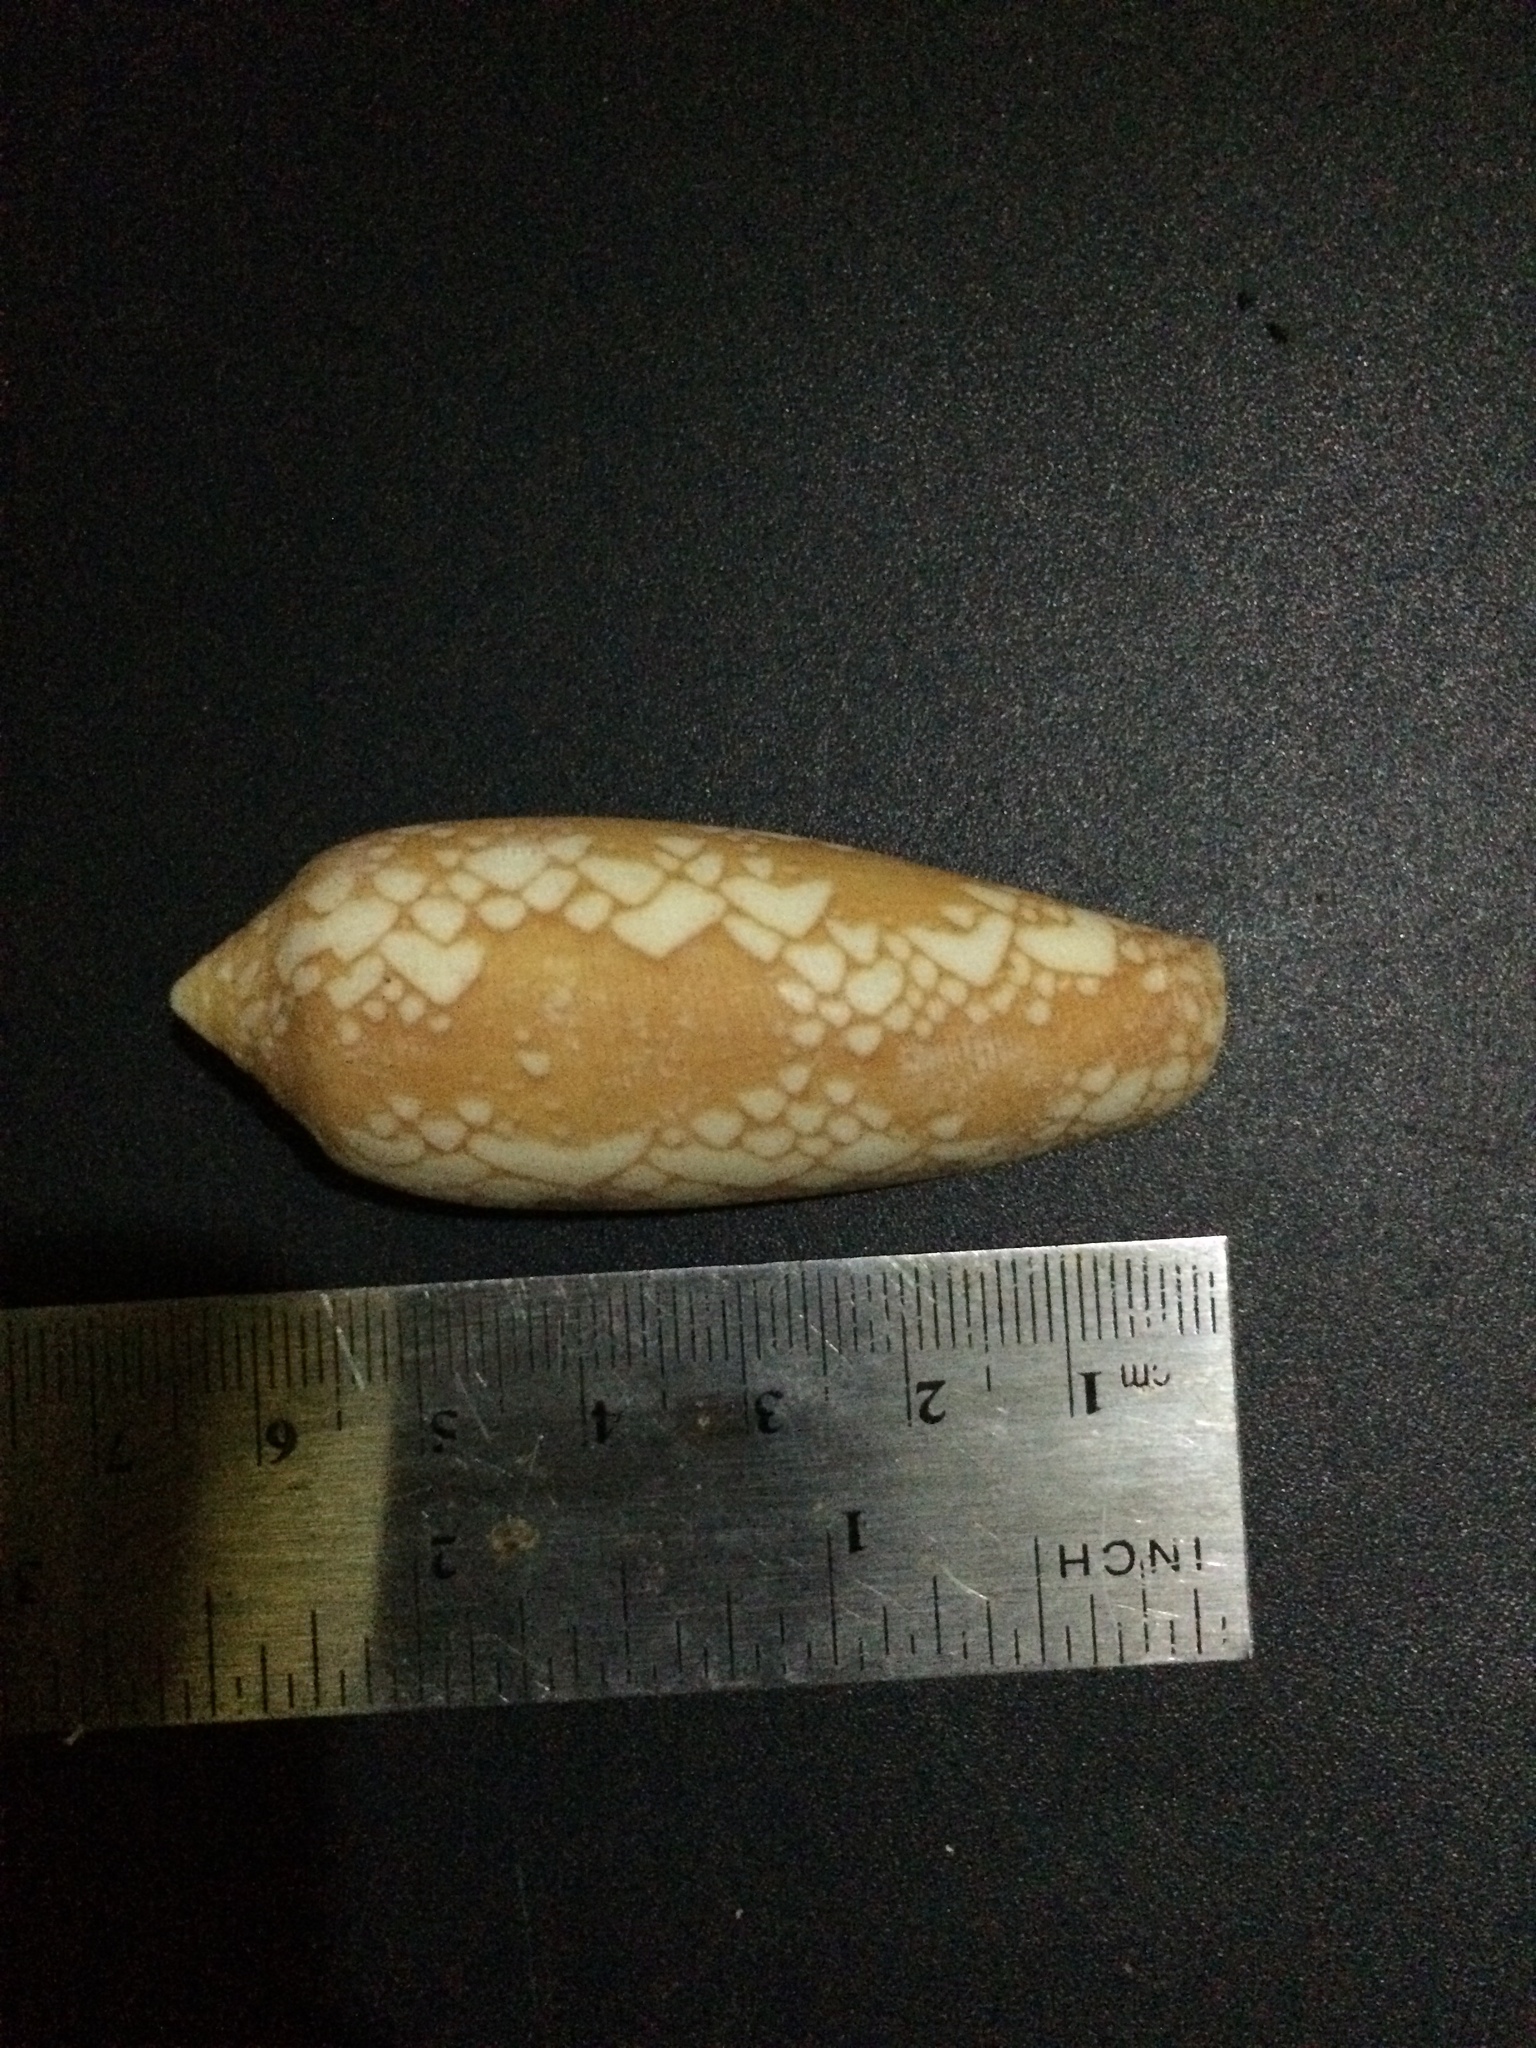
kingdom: Animalia
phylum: Mollusca
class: Gastropoda
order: Neogastropoda
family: Conidae
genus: Conus
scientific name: Conus aulicus
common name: Court cone
